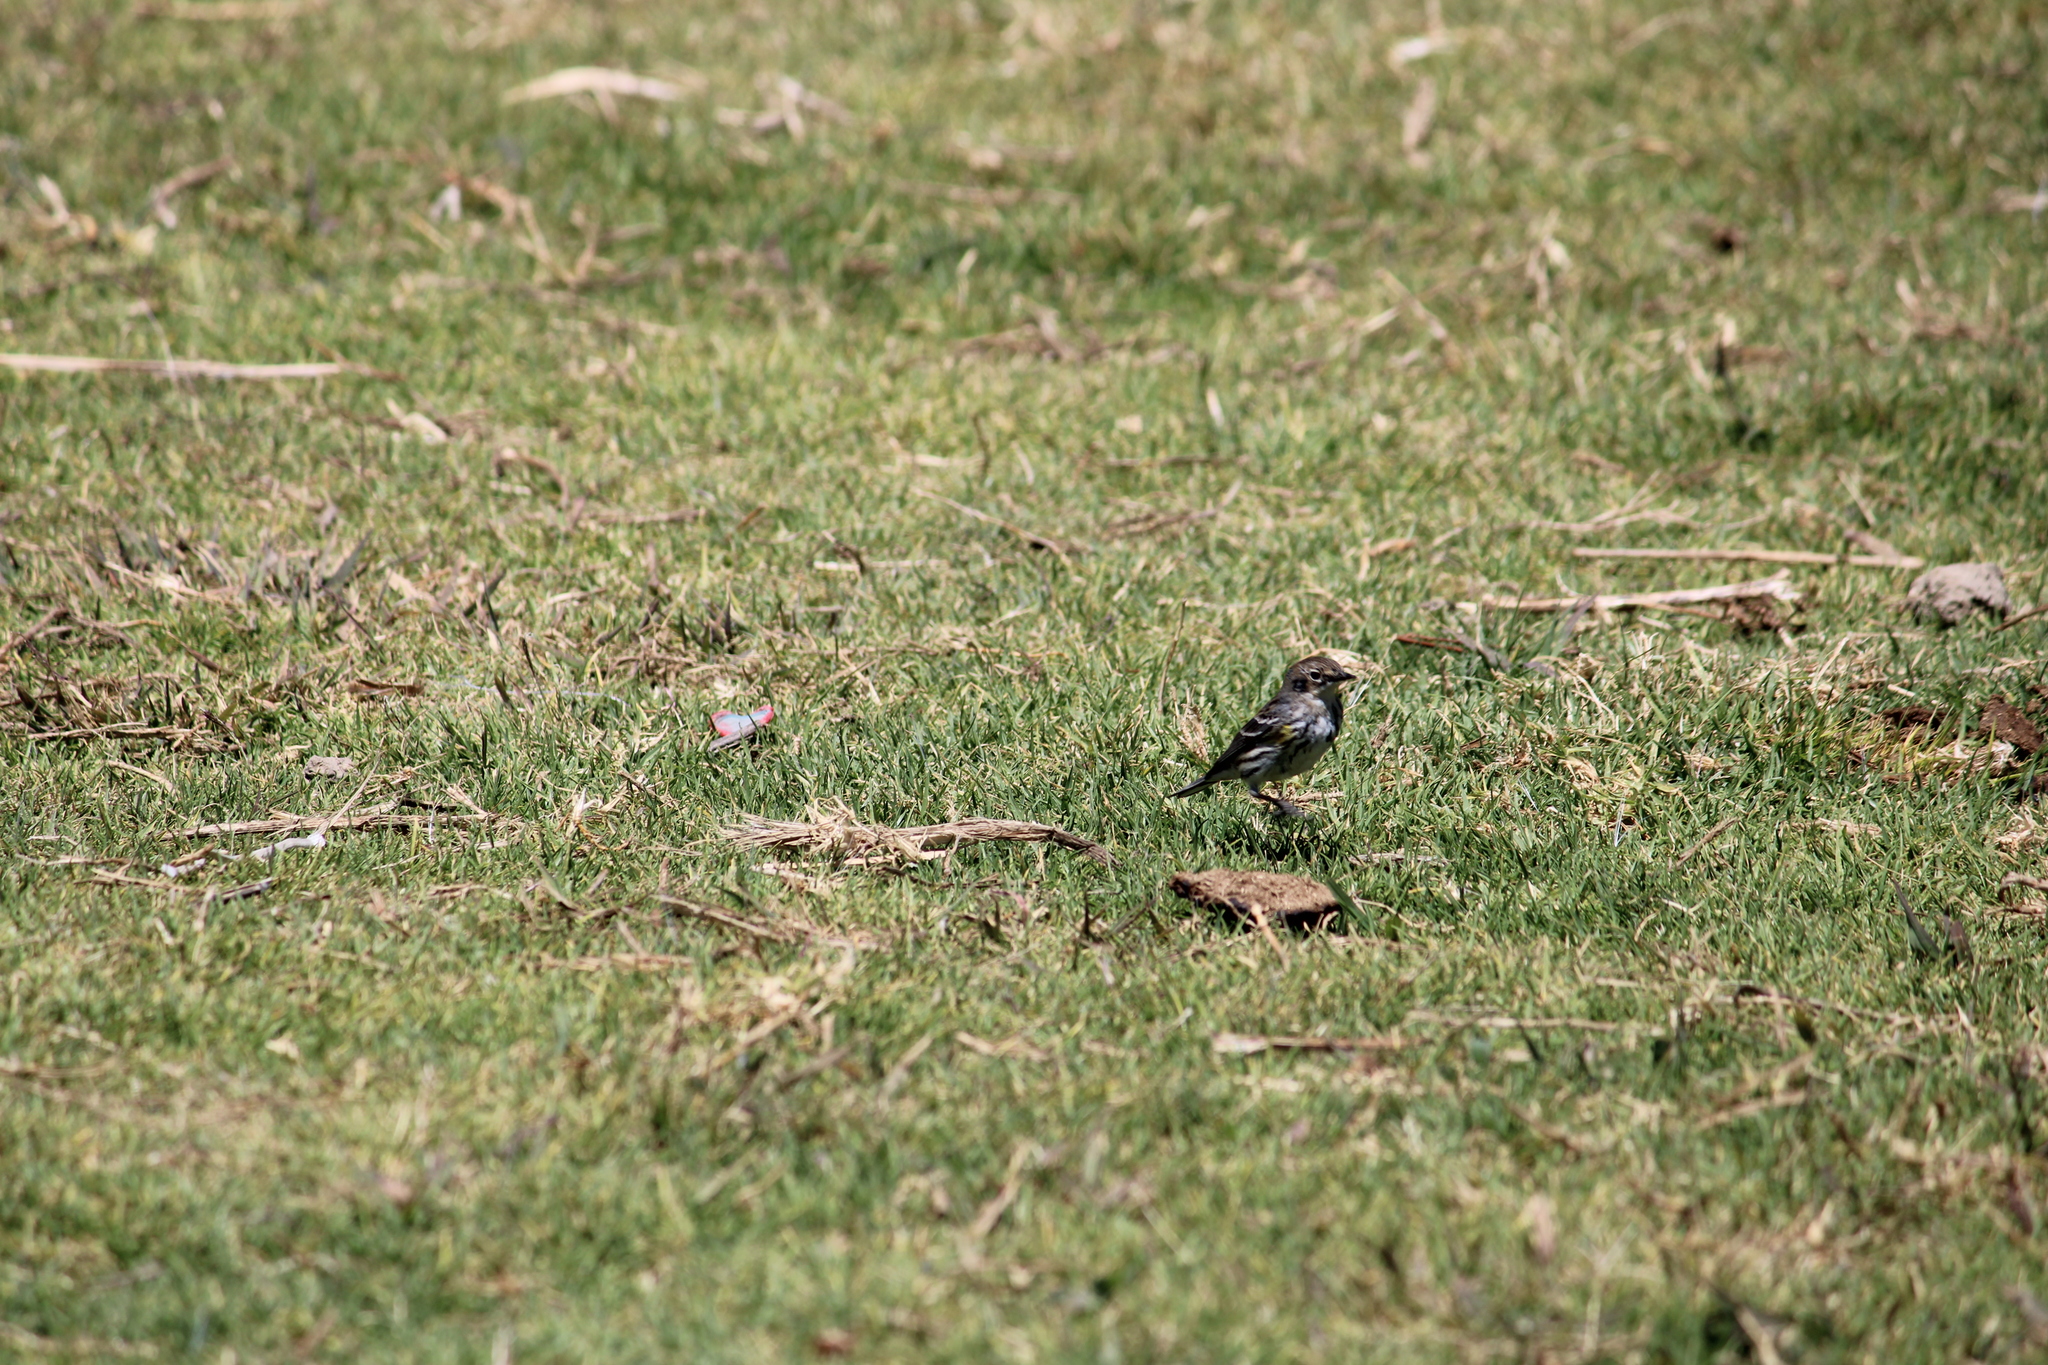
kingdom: Animalia
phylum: Chordata
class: Aves
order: Passeriformes
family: Parulidae
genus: Setophaga
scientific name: Setophaga coronata
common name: Myrtle warbler
